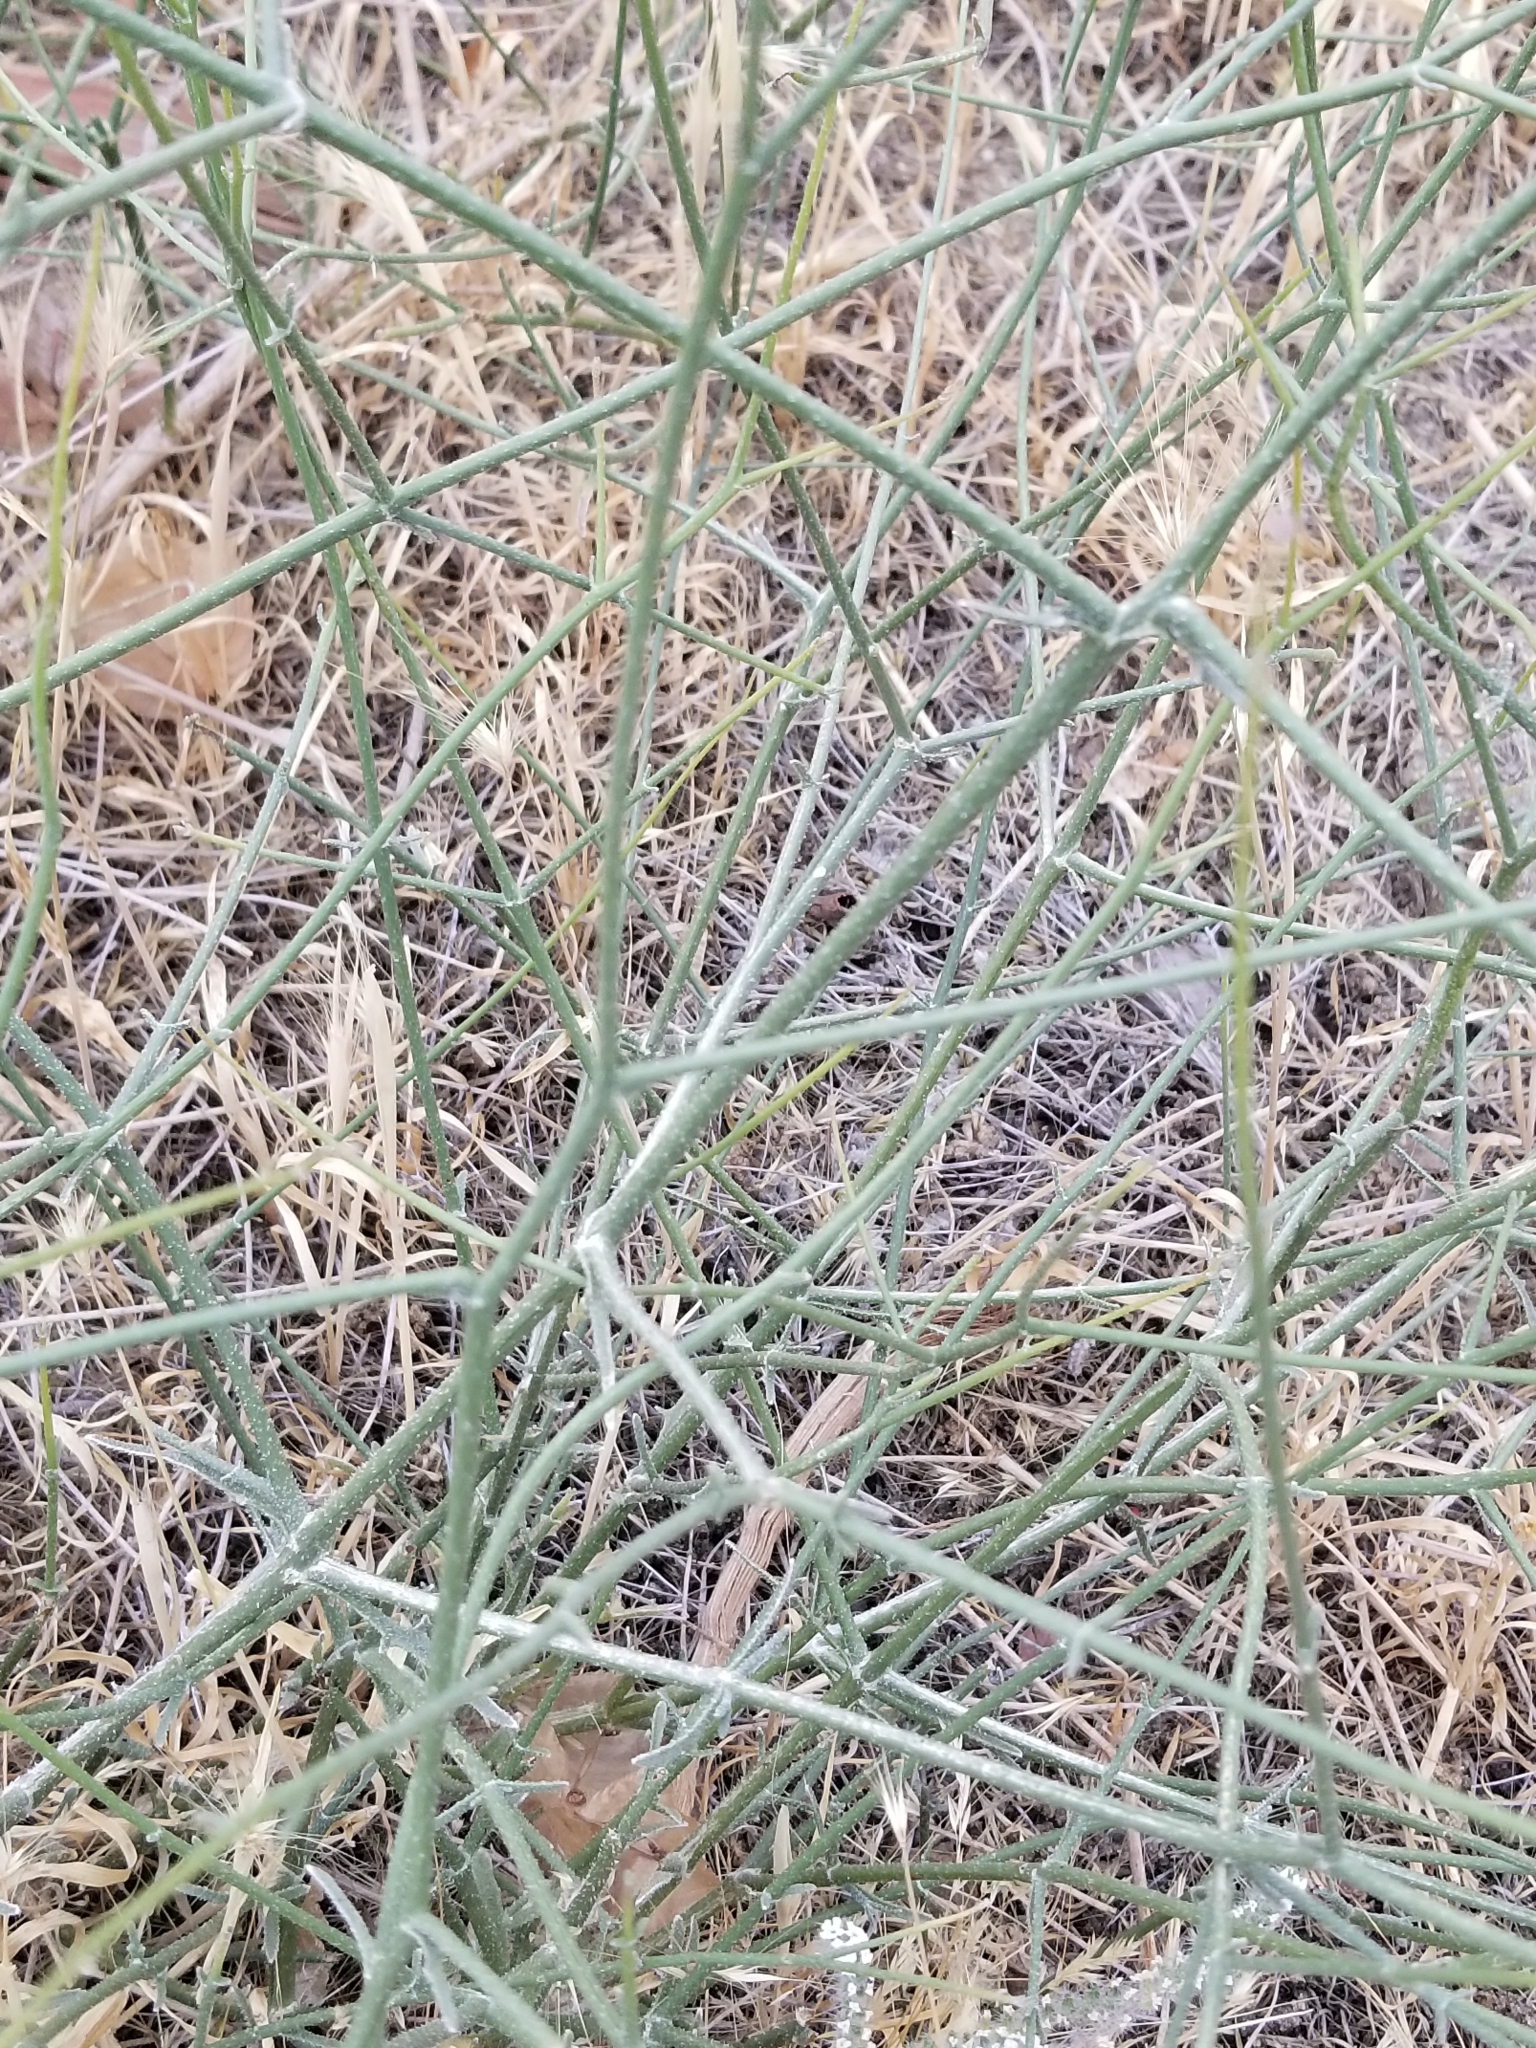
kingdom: Plantae
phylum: Tracheophyta
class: Magnoliopsida
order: Asterales
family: Asteraceae
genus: Bebbia
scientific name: Bebbia juncea
